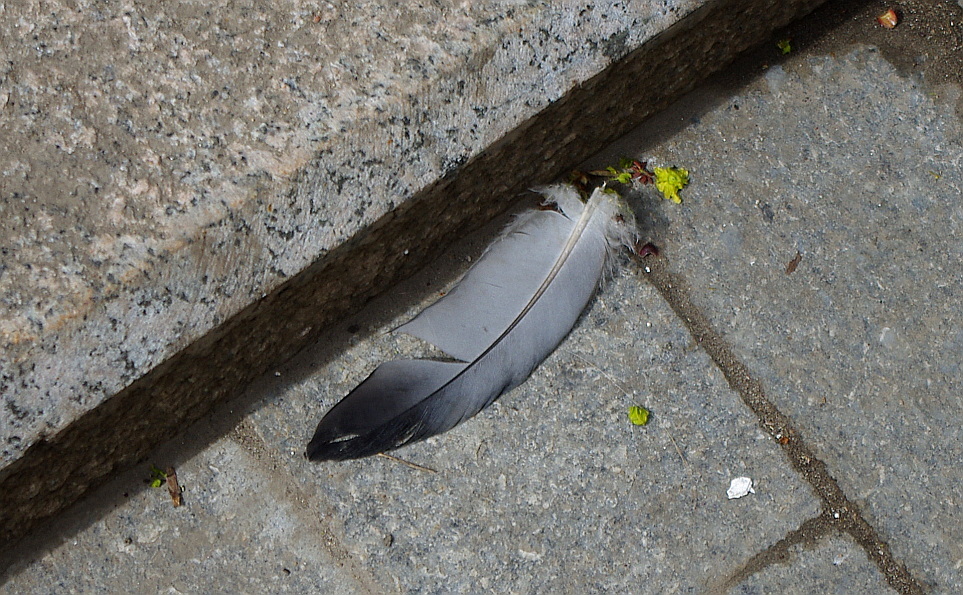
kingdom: Animalia
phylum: Chordata
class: Aves
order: Columbiformes
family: Columbidae
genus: Columba
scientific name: Columba livia
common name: Rock pigeon
